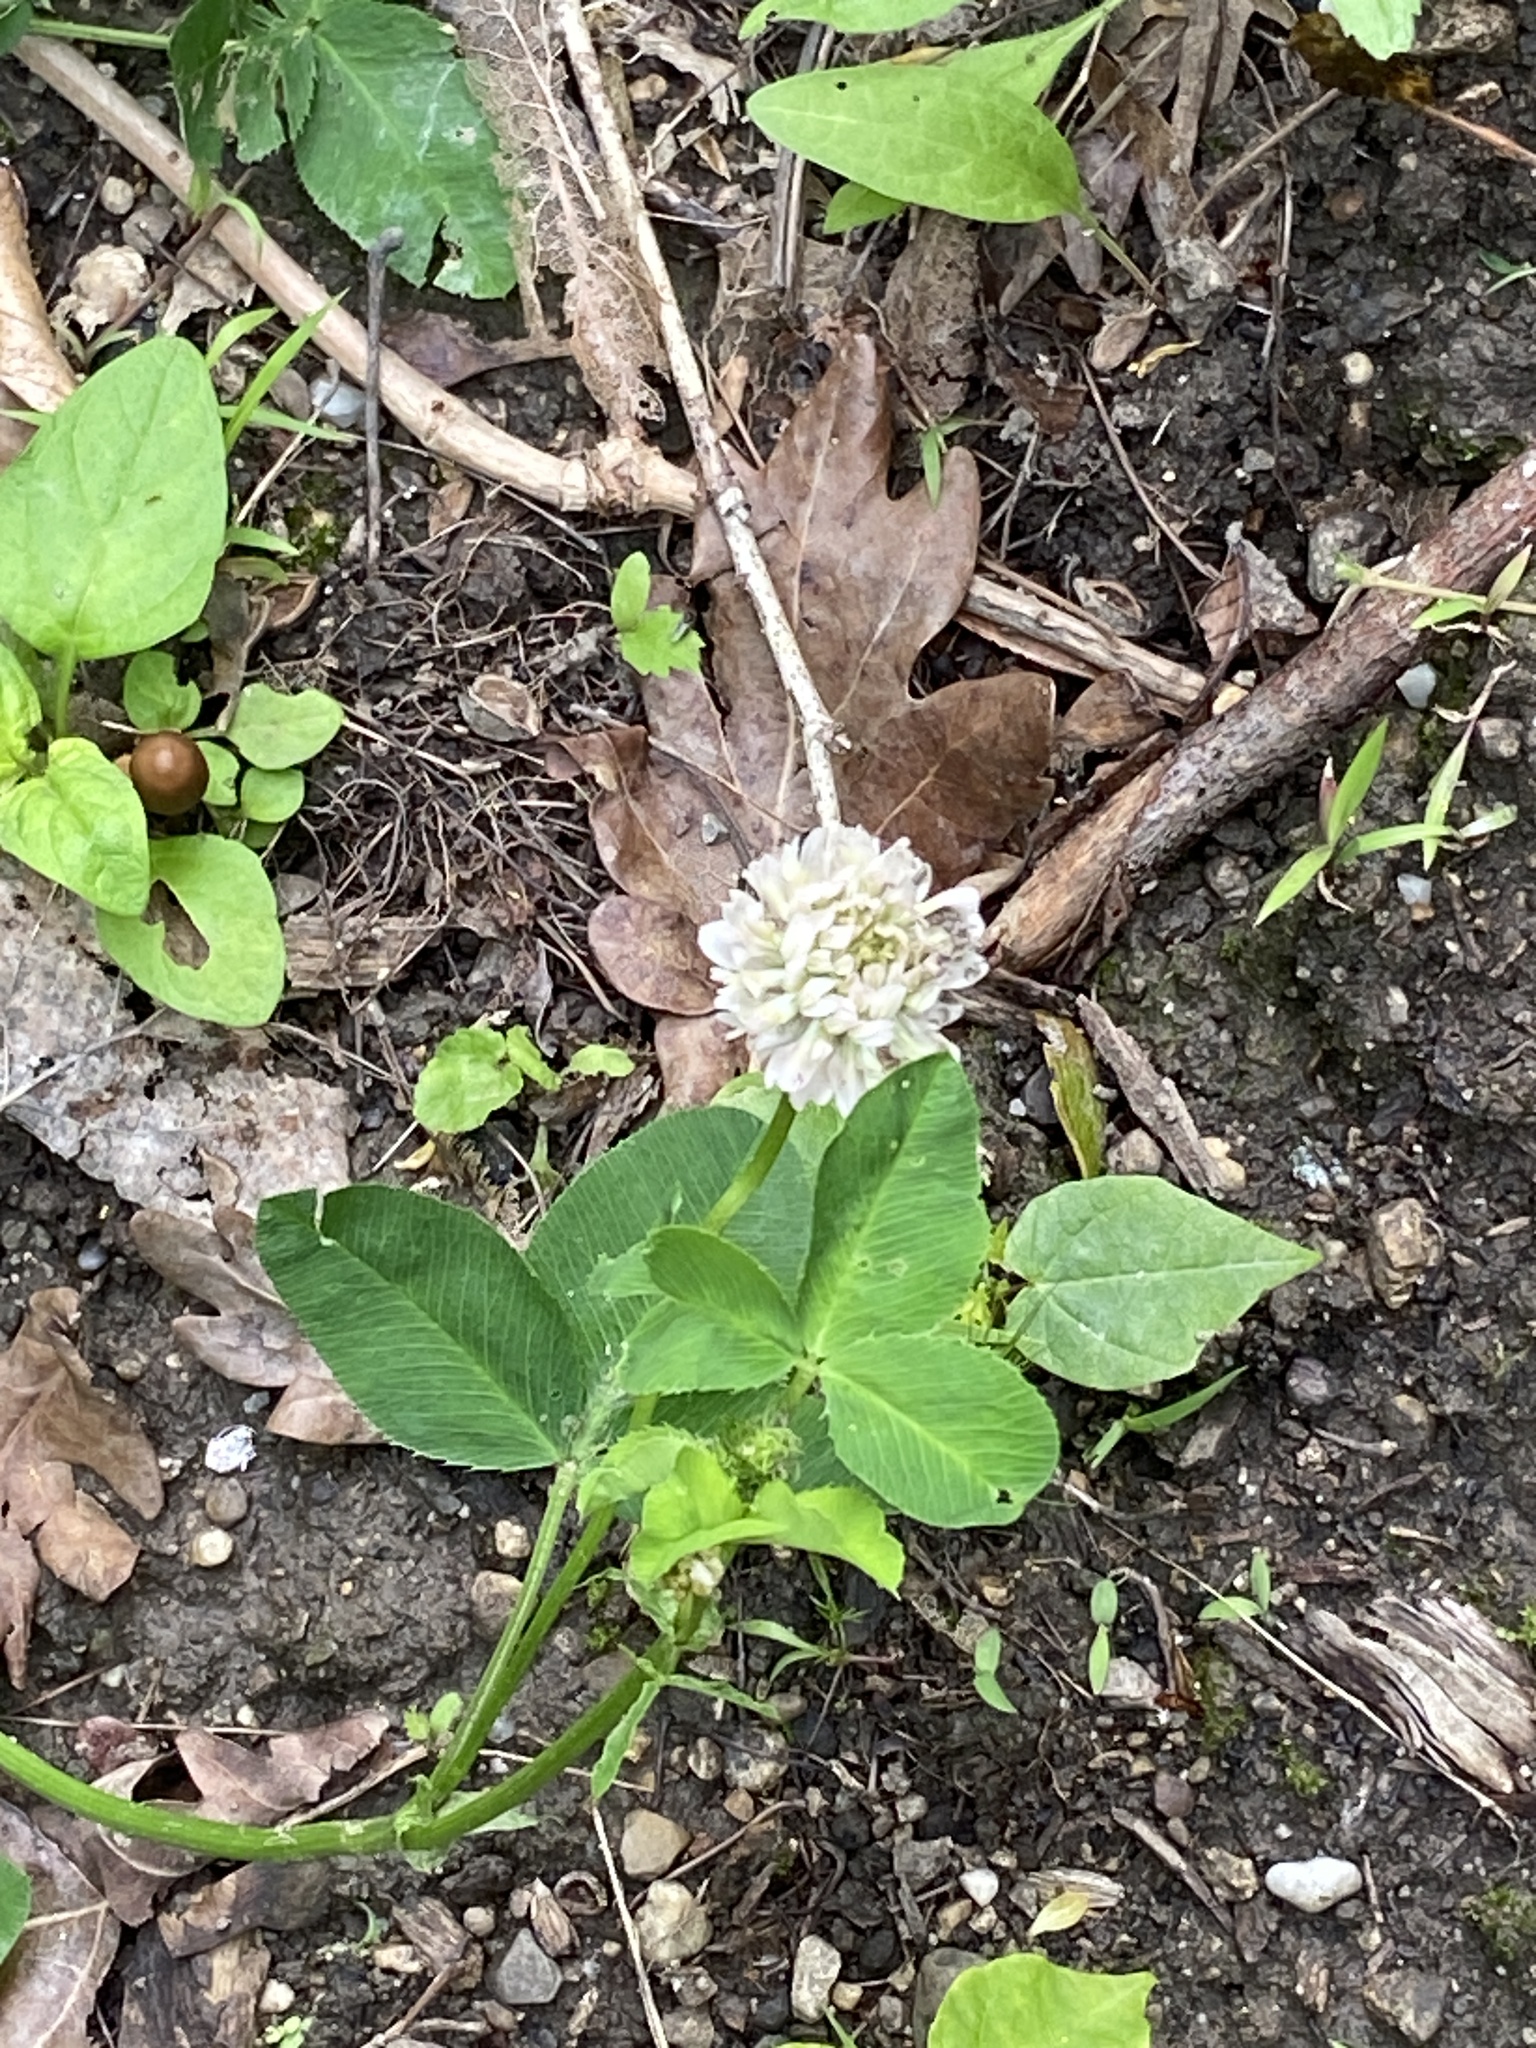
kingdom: Plantae
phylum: Tracheophyta
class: Magnoliopsida
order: Fabales
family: Fabaceae
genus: Trifolium
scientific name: Trifolium hybridum
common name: Alsike clover
